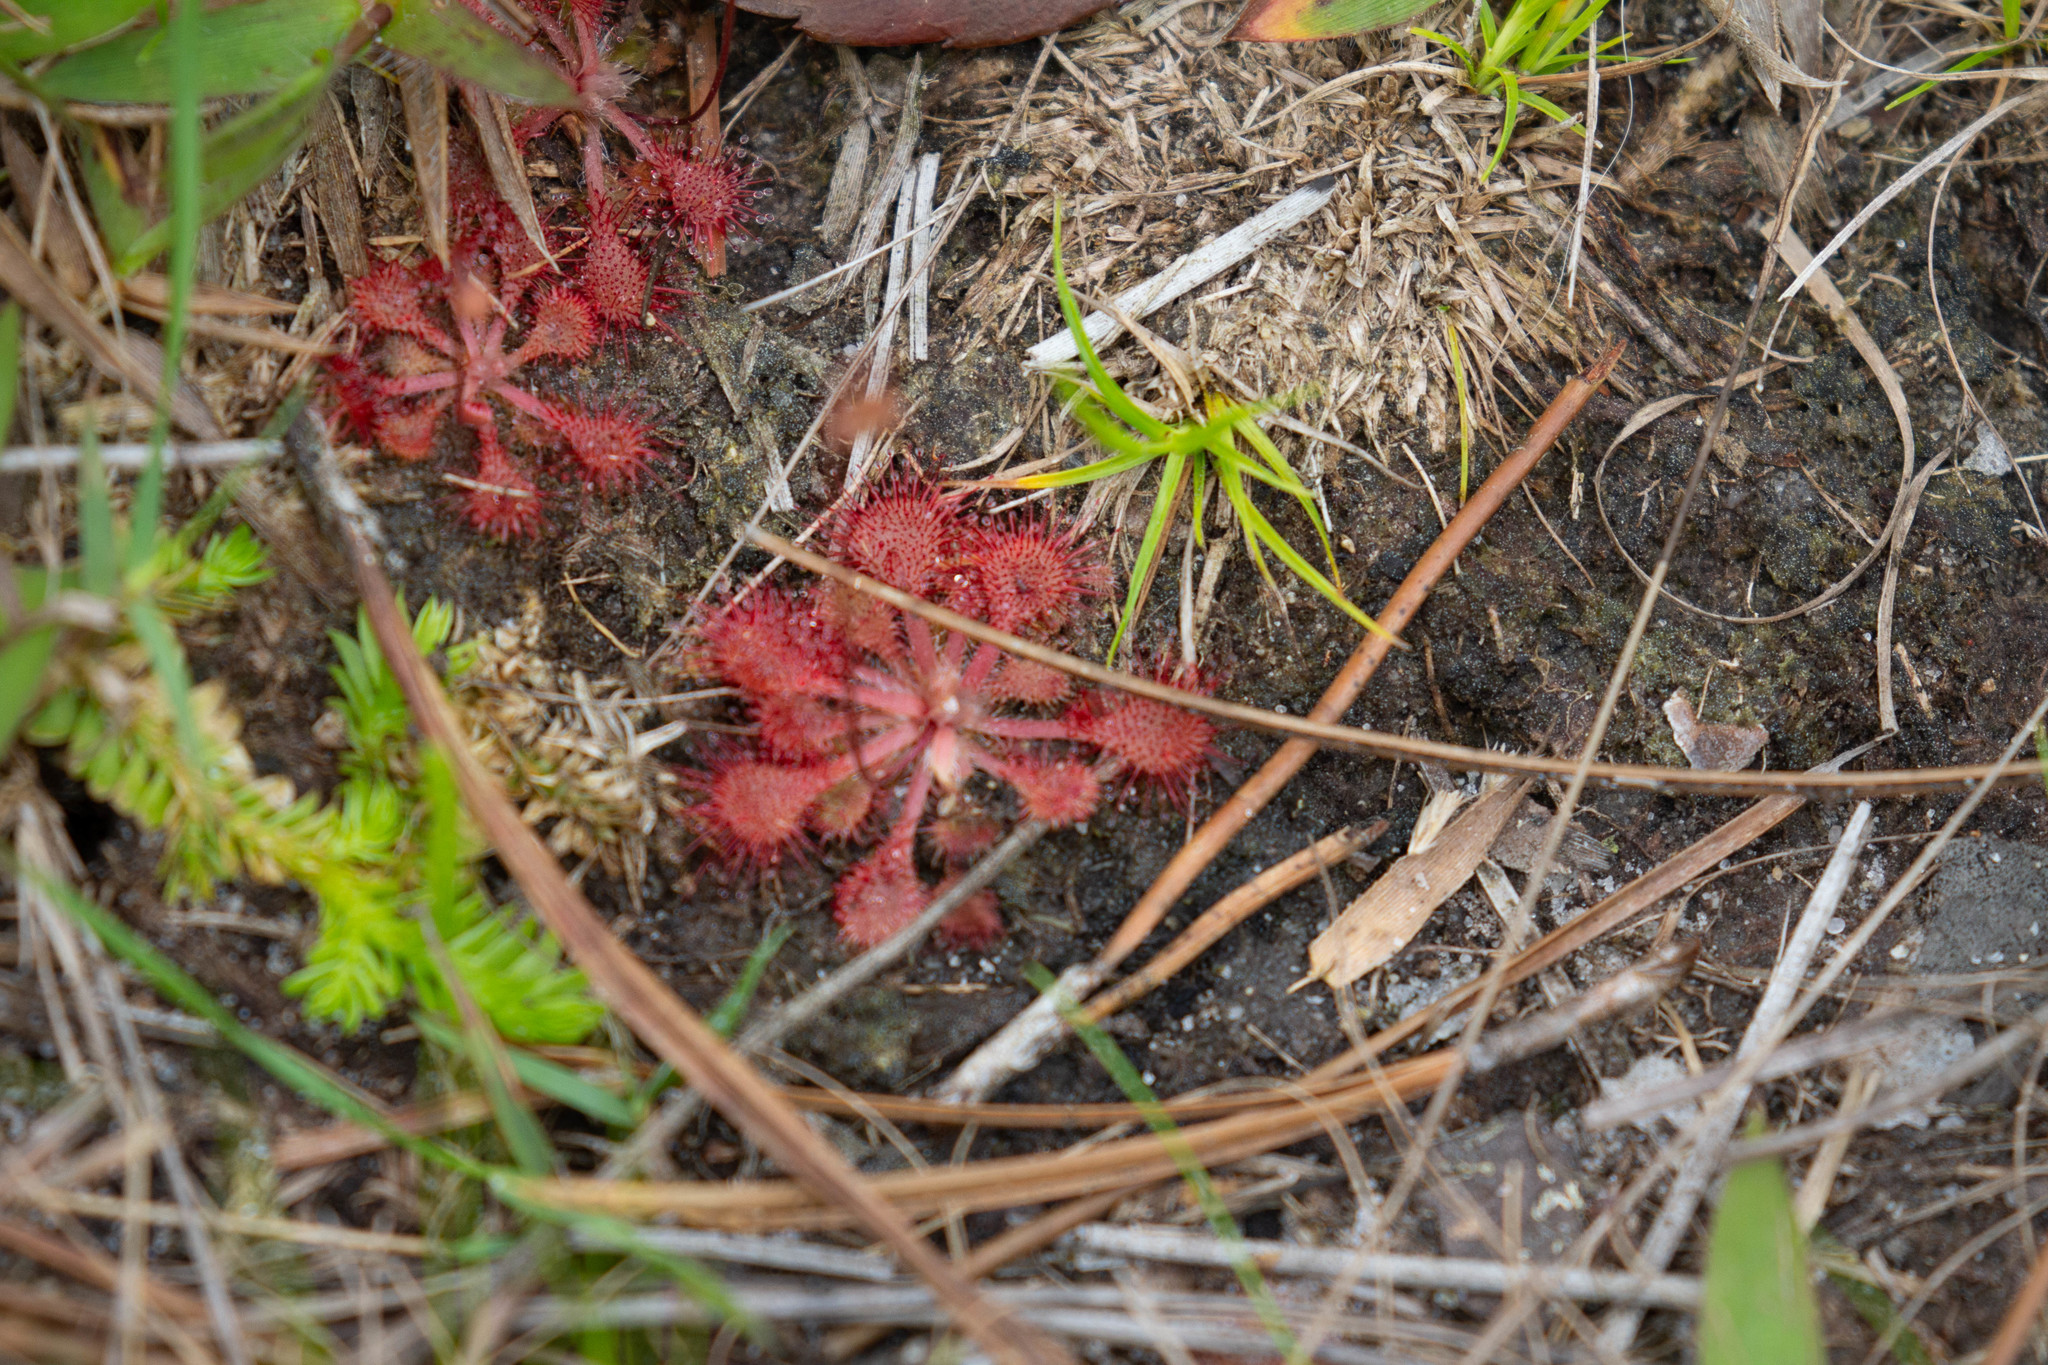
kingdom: Plantae
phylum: Tracheophyta
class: Magnoliopsida
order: Caryophyllales
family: Droseraceae
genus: Drosera
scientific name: Drosera capillaris
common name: Pink sundew
